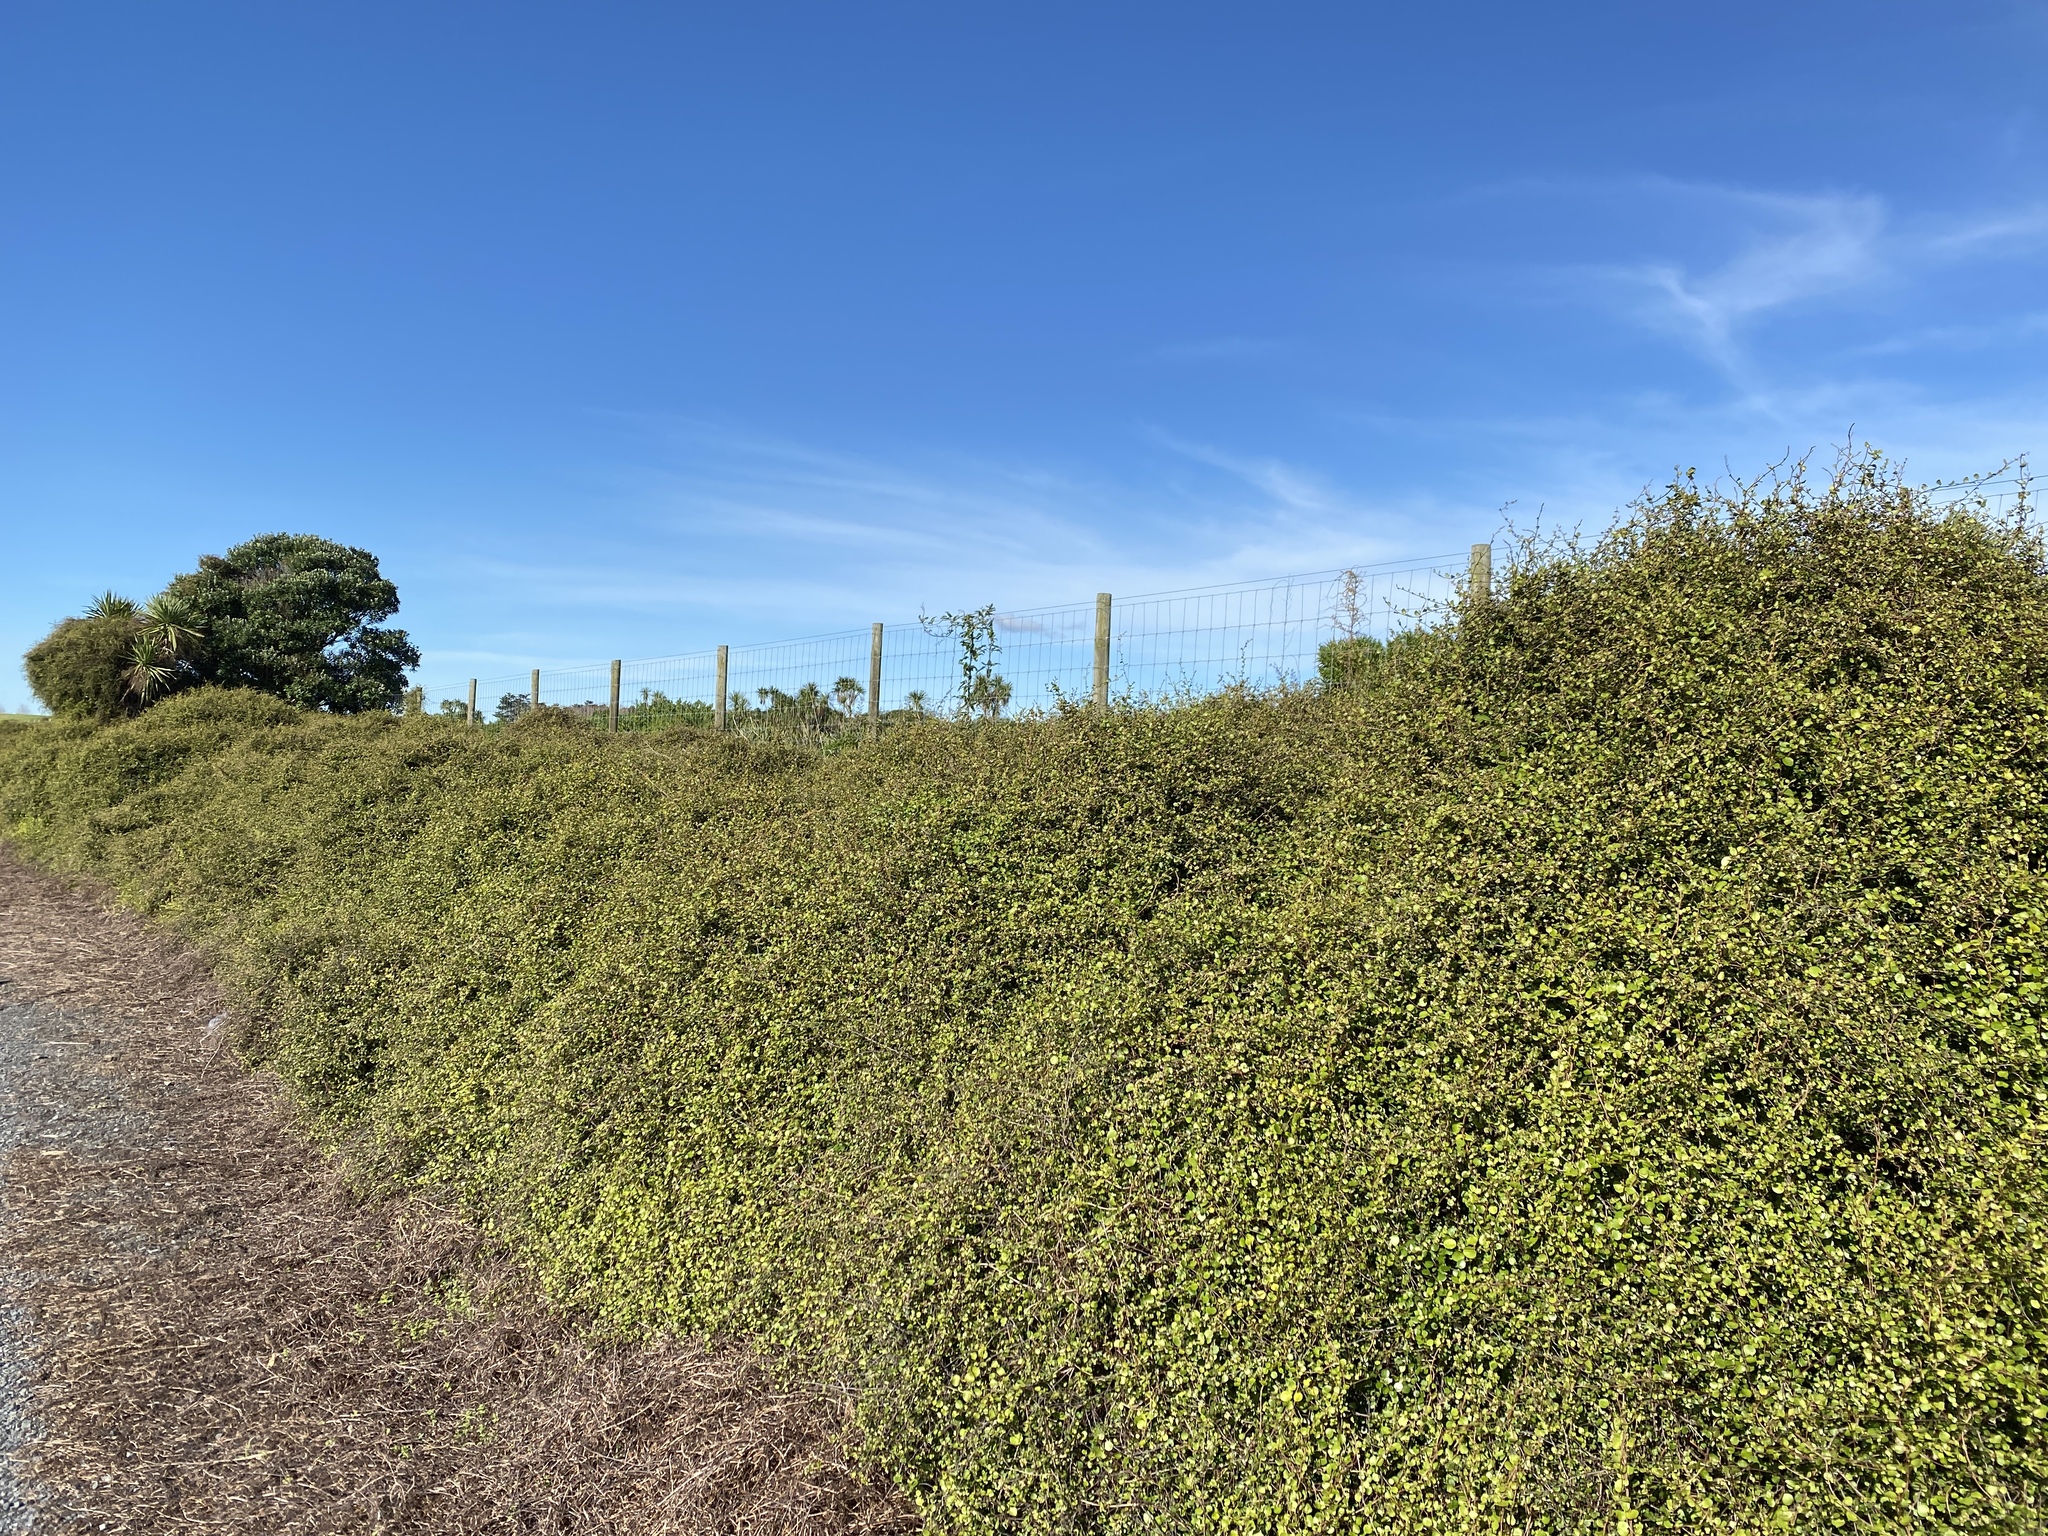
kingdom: Plantae
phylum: Tracheophyta
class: Magnoliopsida
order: Caryophyllales
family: Polygonaceae
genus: Muehlenbeckia
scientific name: Muehlenbeckia complexa
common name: Wireplant
